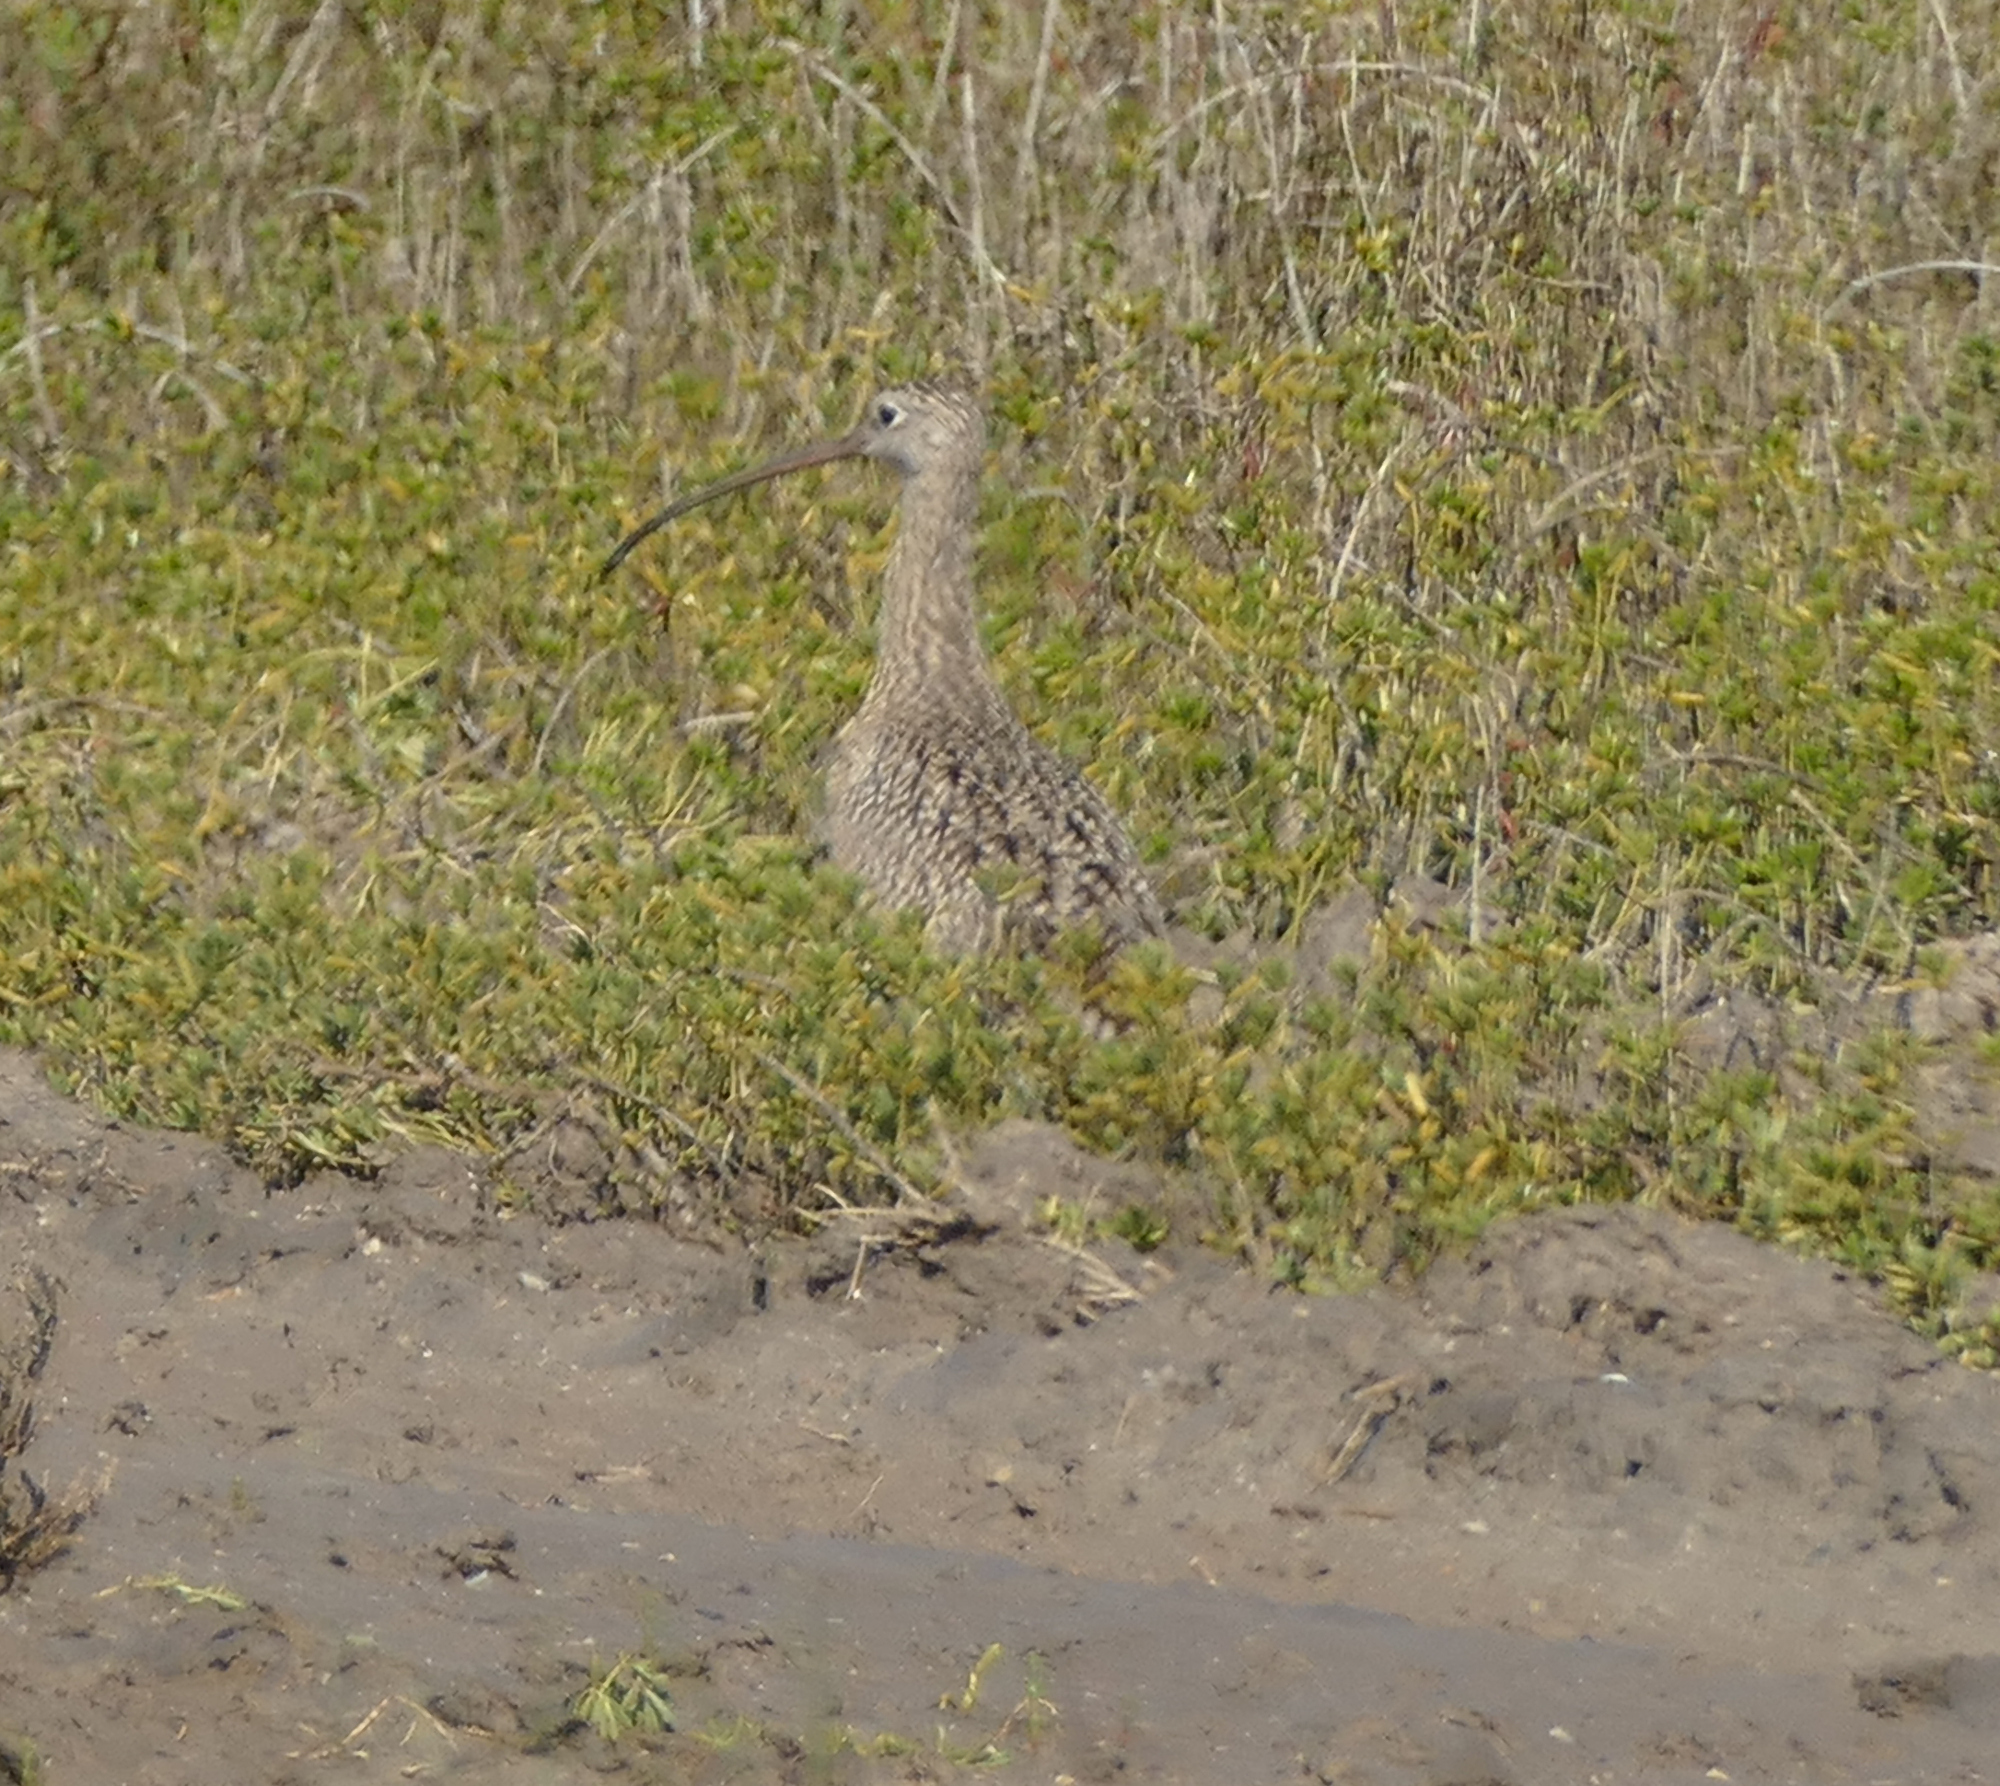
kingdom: Animalia
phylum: Chordata
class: Aves
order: Charadriiformes
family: Scolopacidae
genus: Numenius
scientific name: Numenius americanus
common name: Long-billed curlew
